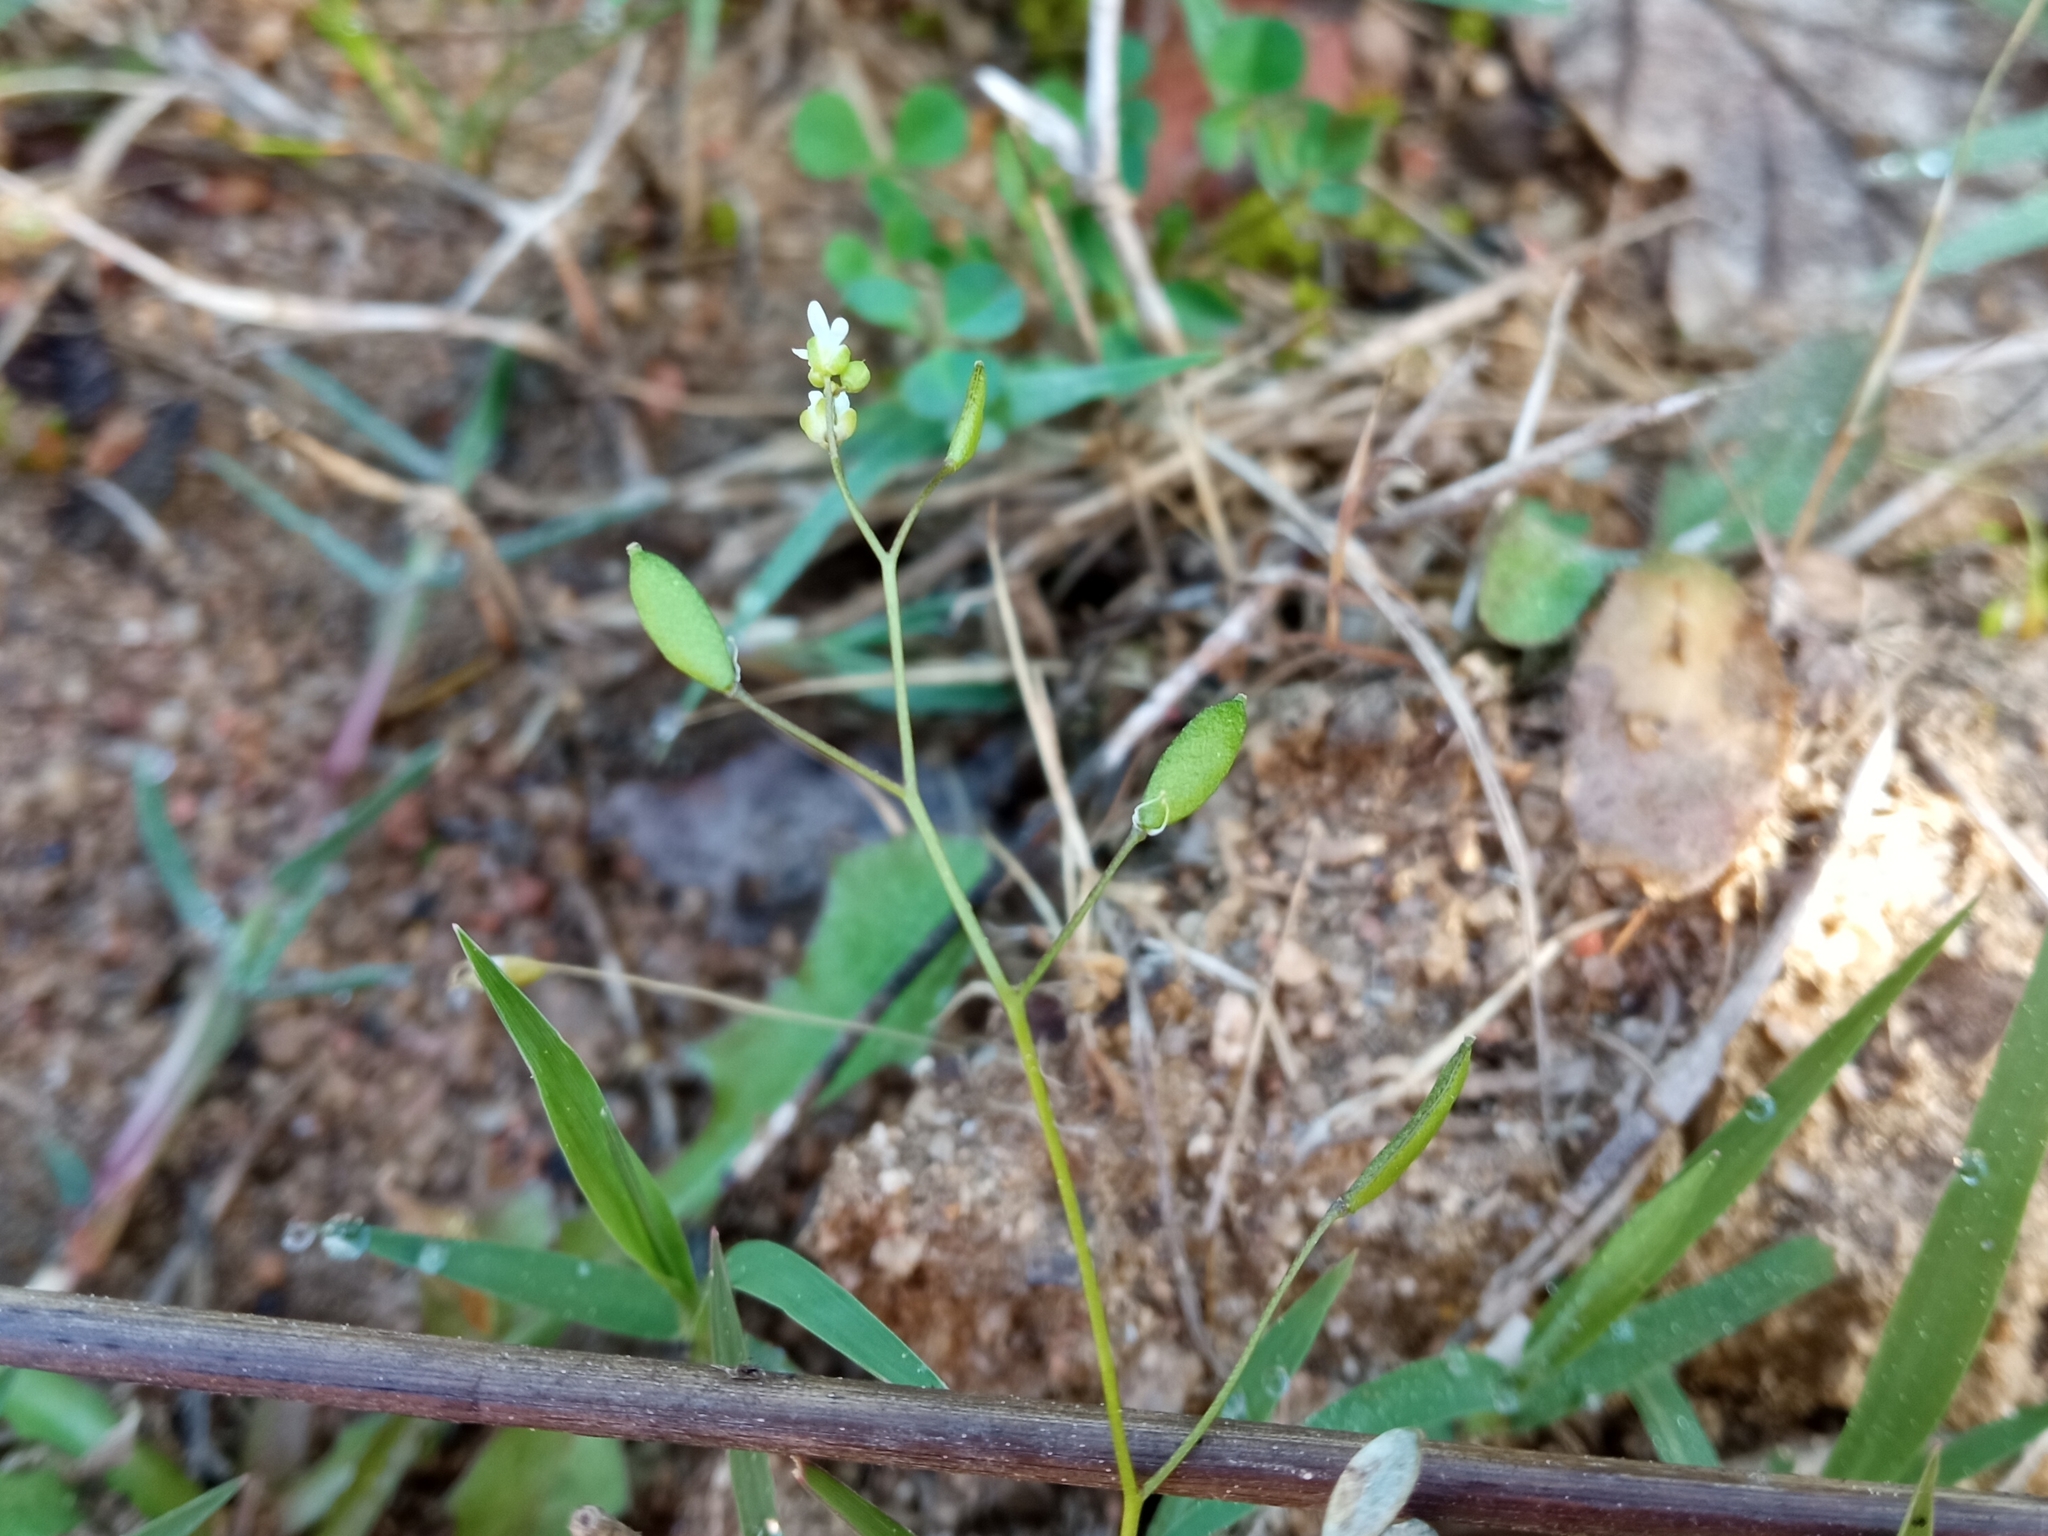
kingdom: Plantae
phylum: Tracheophyta
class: Magnoliopsida
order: Brassicales
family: Brassicaceae
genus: Draba
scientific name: Draba verna
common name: Spring draba
